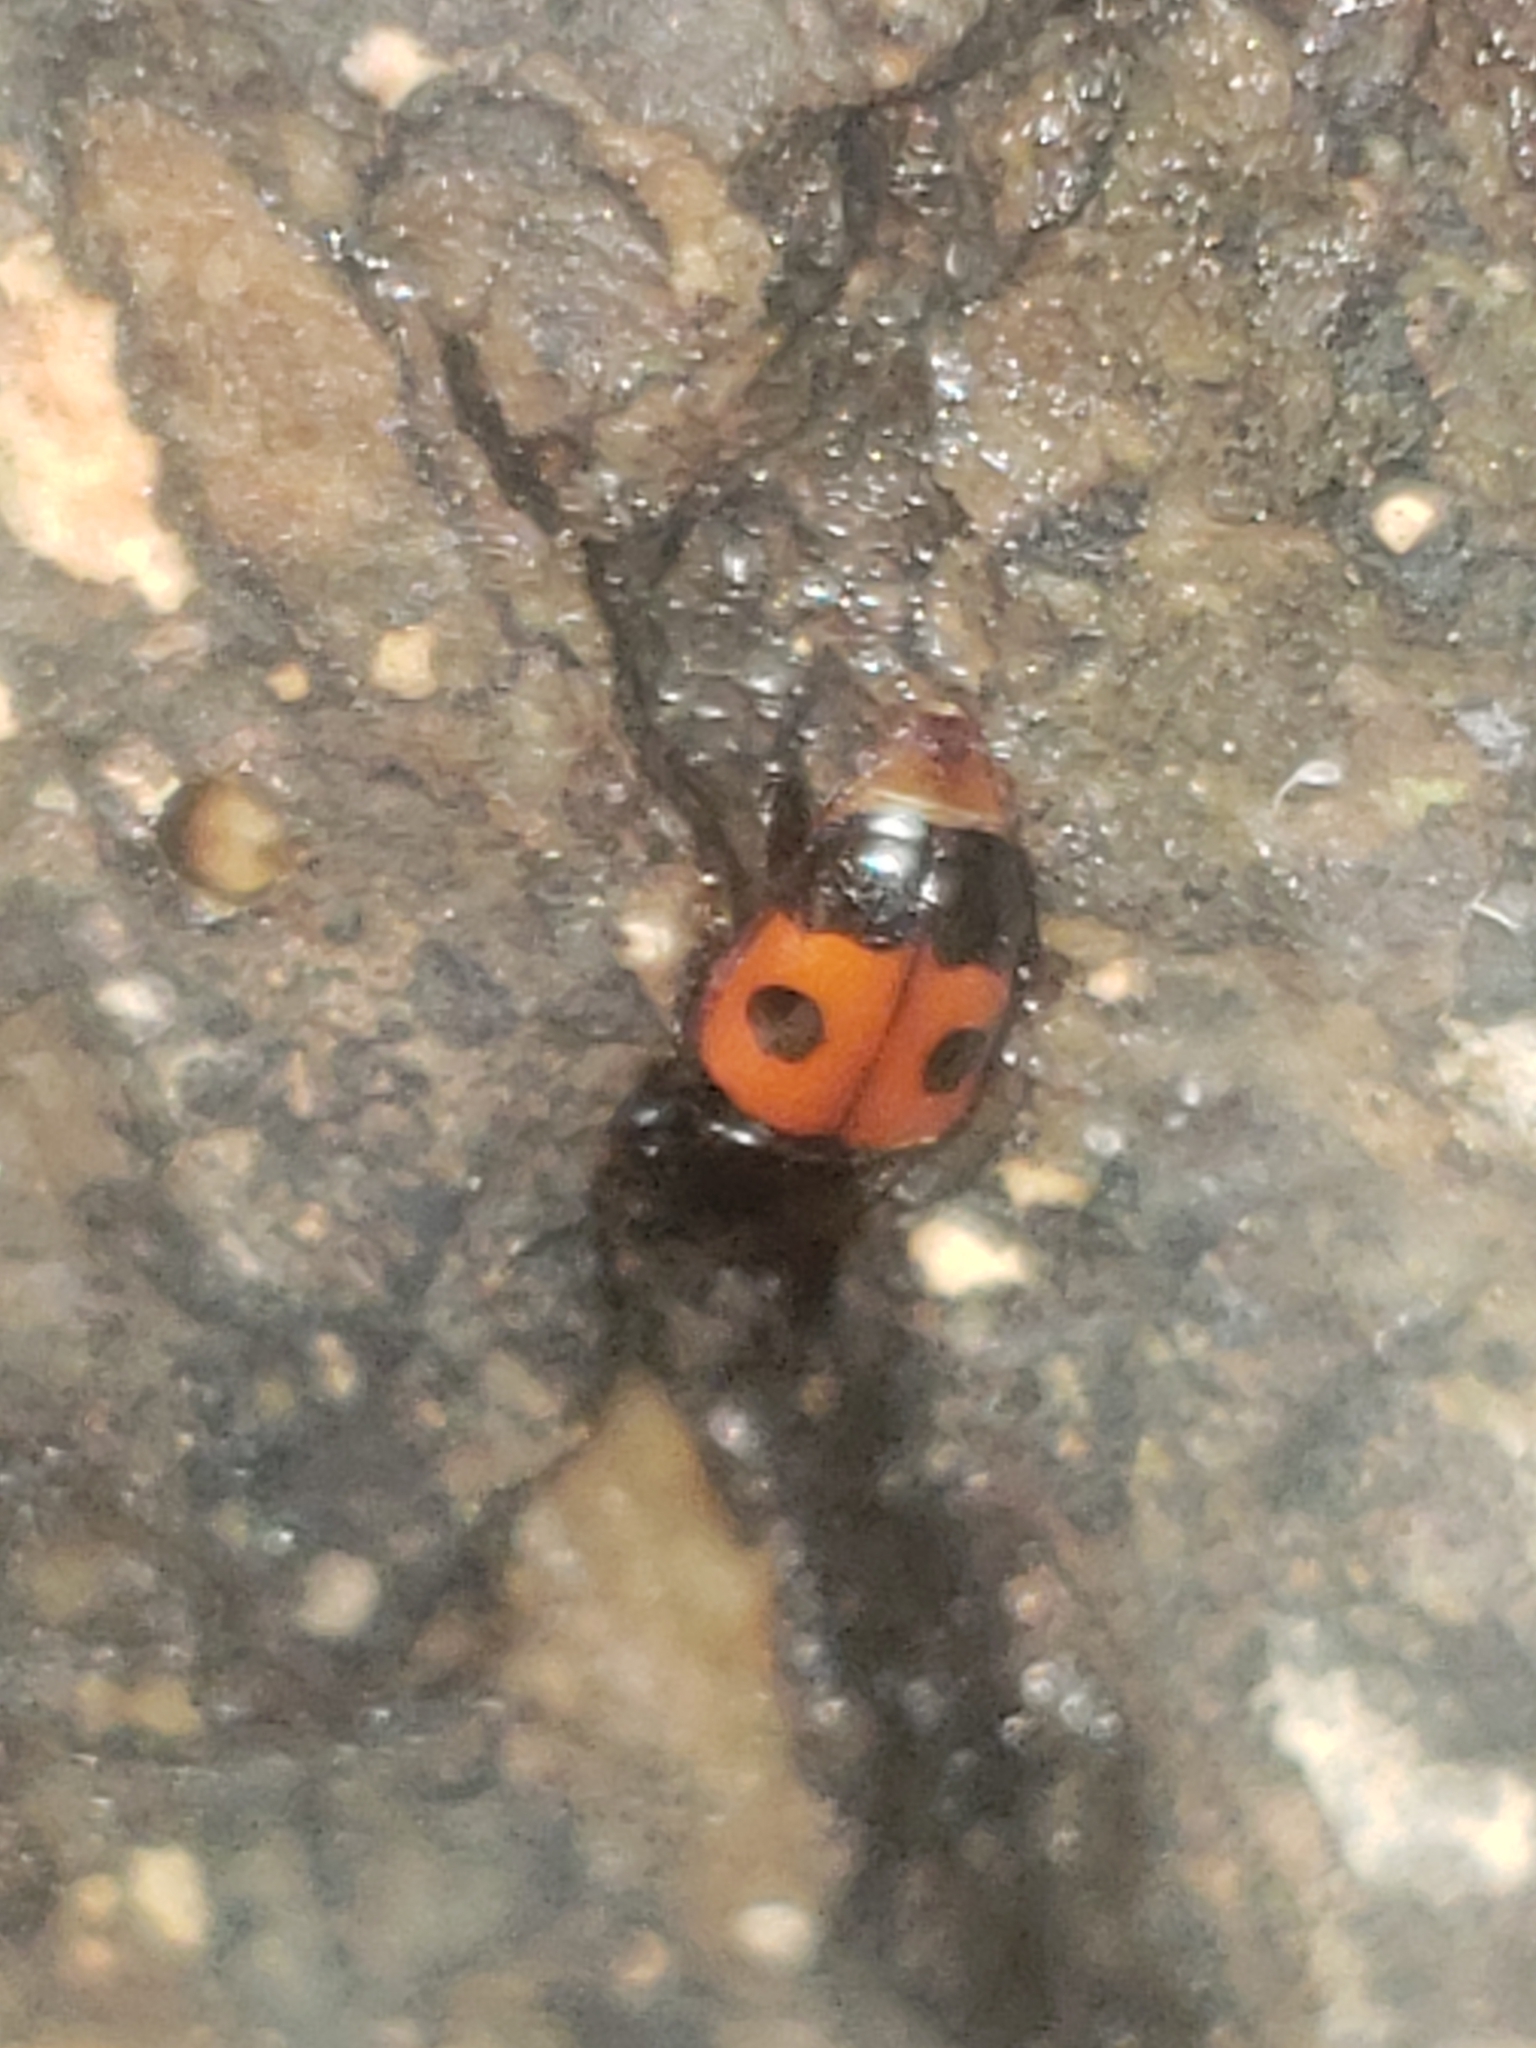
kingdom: Animalia
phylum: Arthropoda
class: Insecta
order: Coleoptera
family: Nitidulidae
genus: Glischrochilus
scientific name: Glischrochilus sanguinolentus
